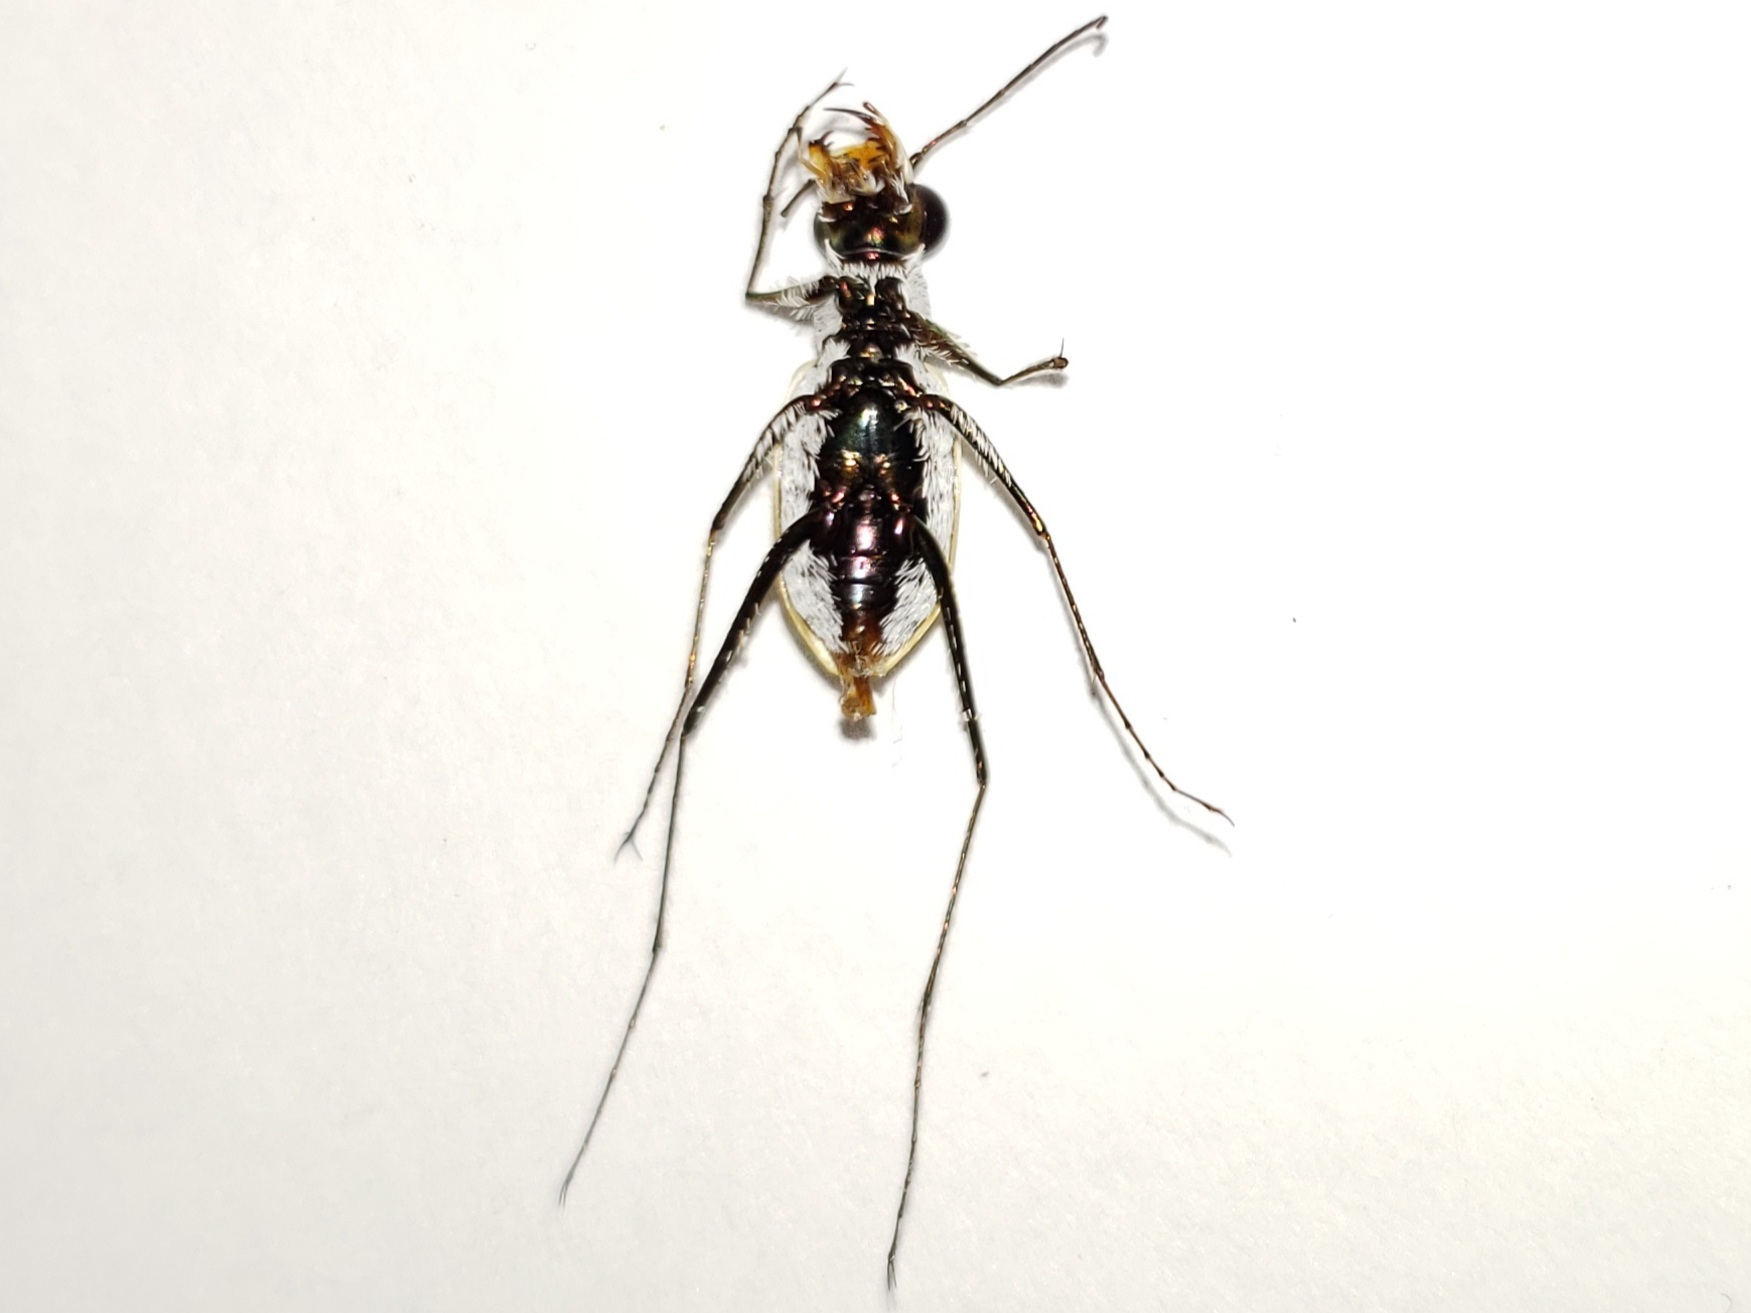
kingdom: Animalia
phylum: Arthropoda
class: Insecta
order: Coleoptera
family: Carabidae
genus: Habroscelimorpha
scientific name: Habroscelimorpha dorsalis
